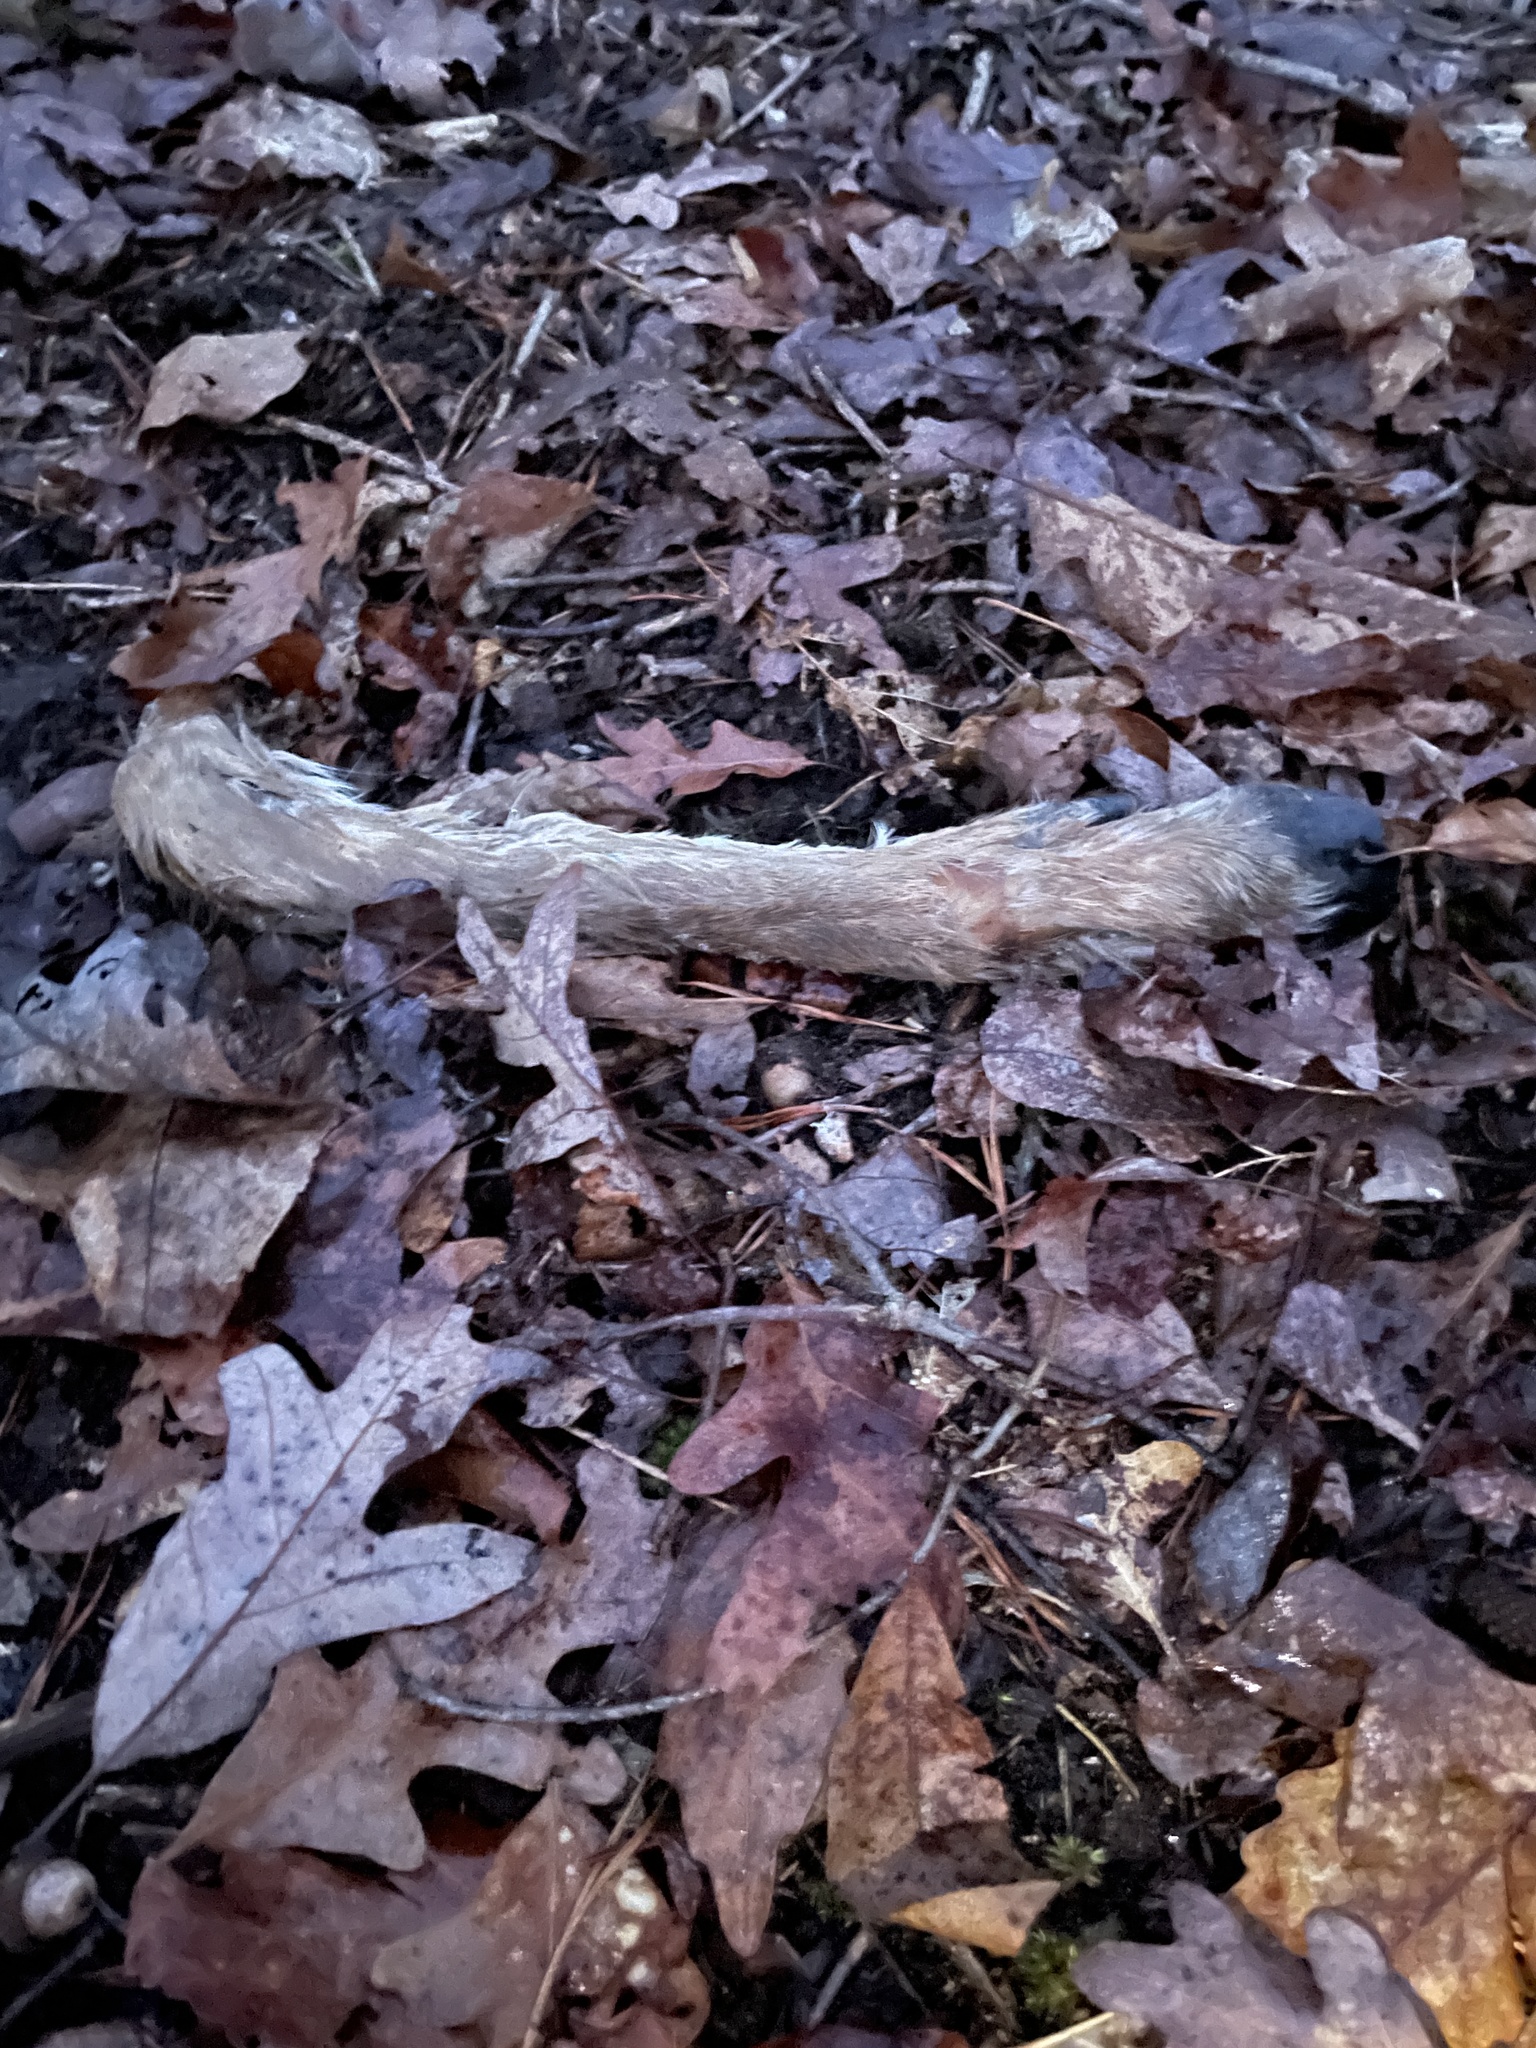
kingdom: Animalia
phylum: Chordata
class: Mammalia
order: Artiodactyla
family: Cervidae
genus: Odocoileus
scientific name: Odocoileus virginianus
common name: White-tailed deer
